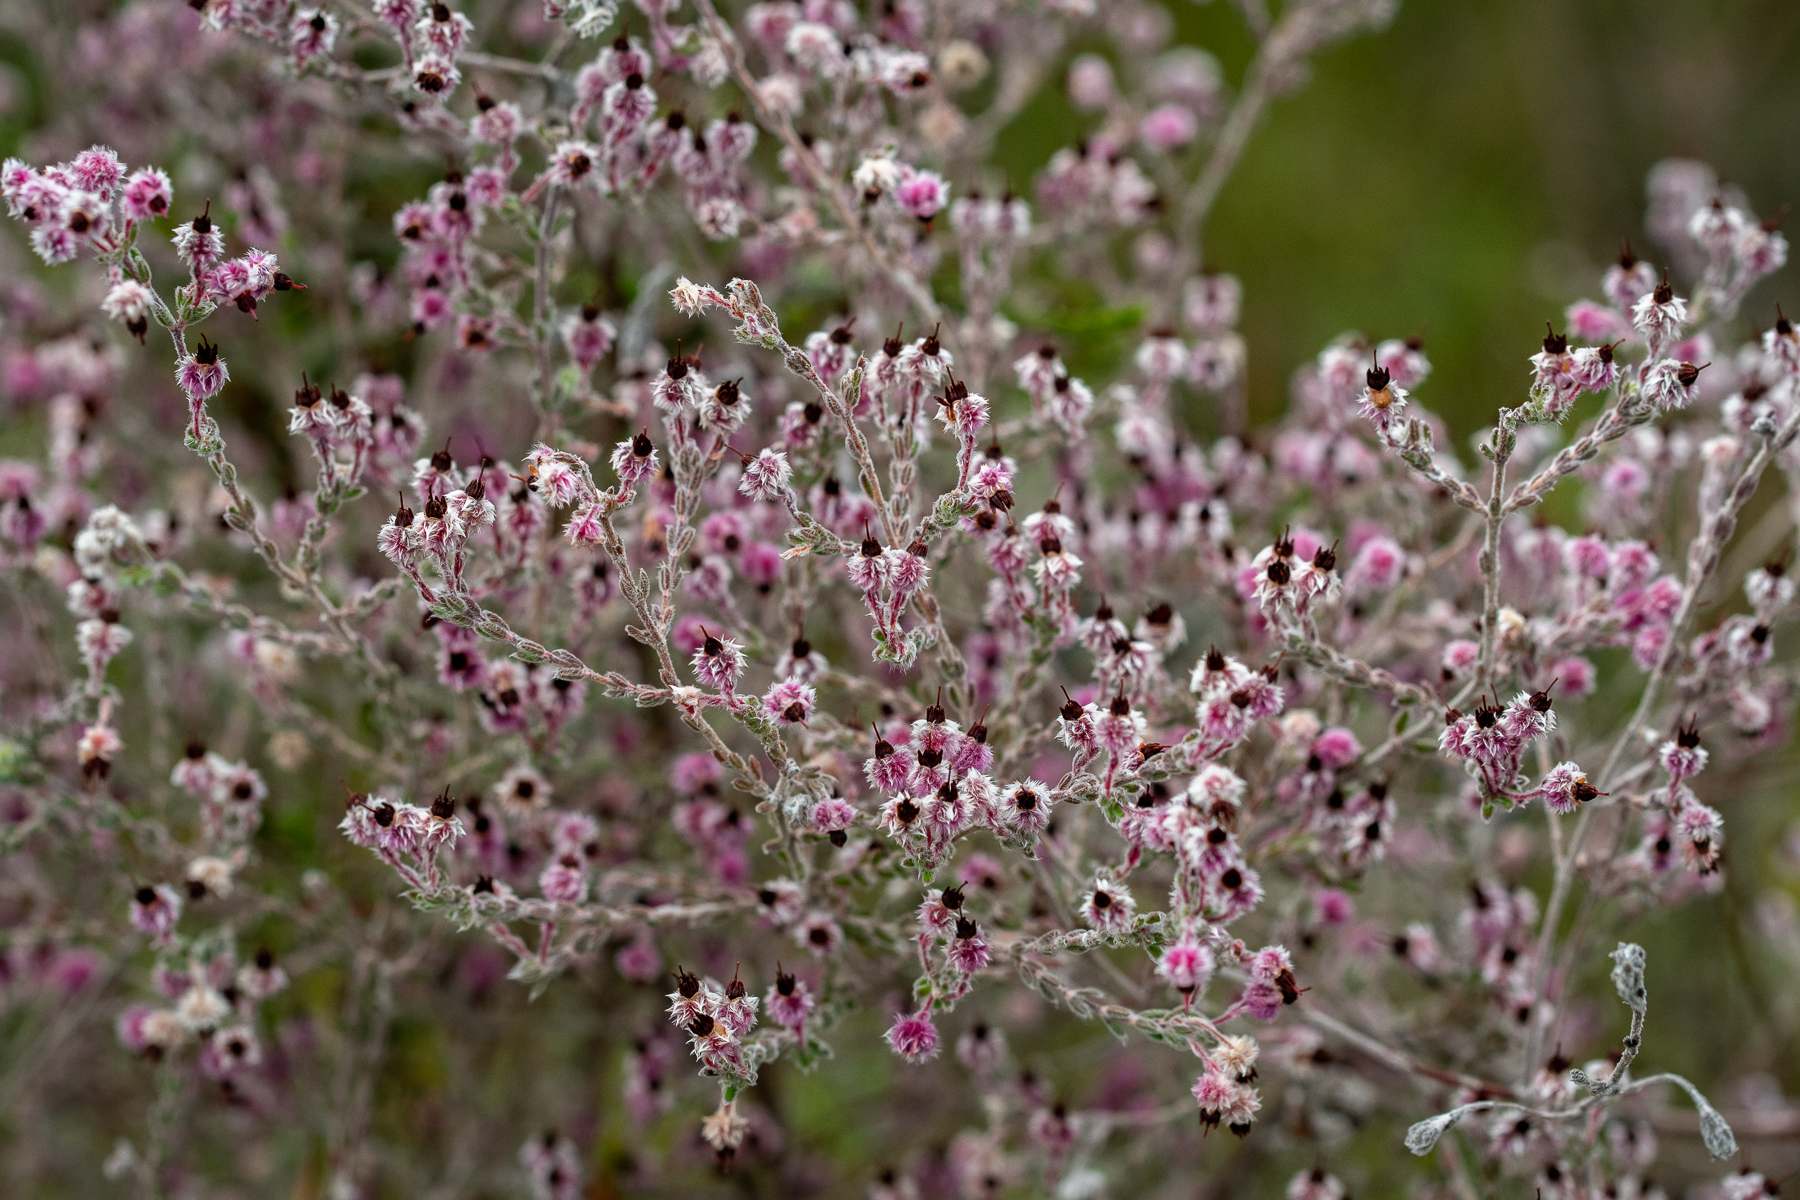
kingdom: Plantae
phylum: Tracheophyta
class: Magnoliopsida
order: Ericales
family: Ericaceae
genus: Erica
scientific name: Erica bruniades
